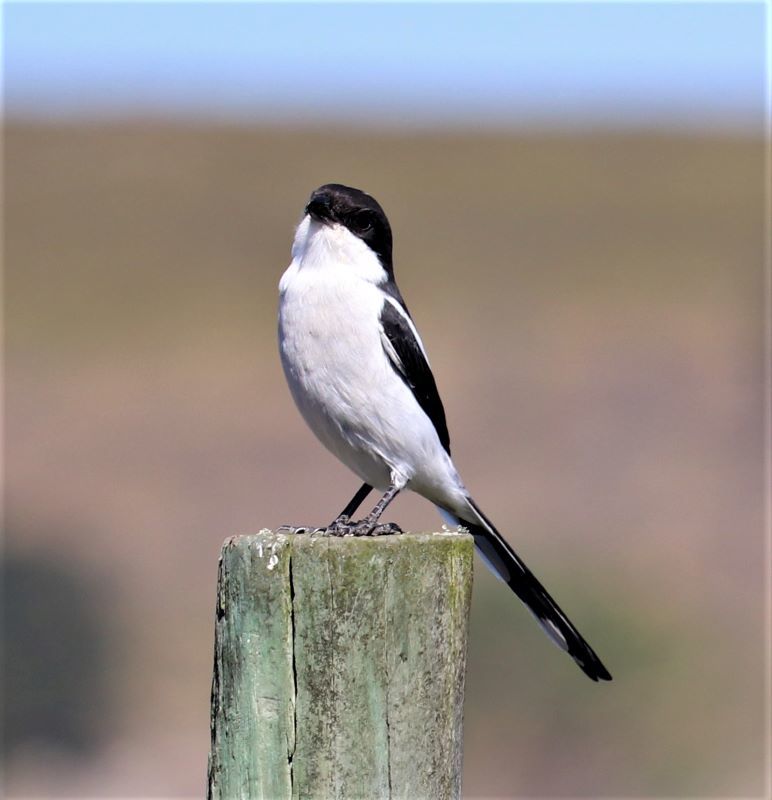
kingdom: Animalia
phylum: Chordata
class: Aves
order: Passeriformes
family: Laniidae
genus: Lanius
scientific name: Lanius collaris
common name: Southern fiscal
